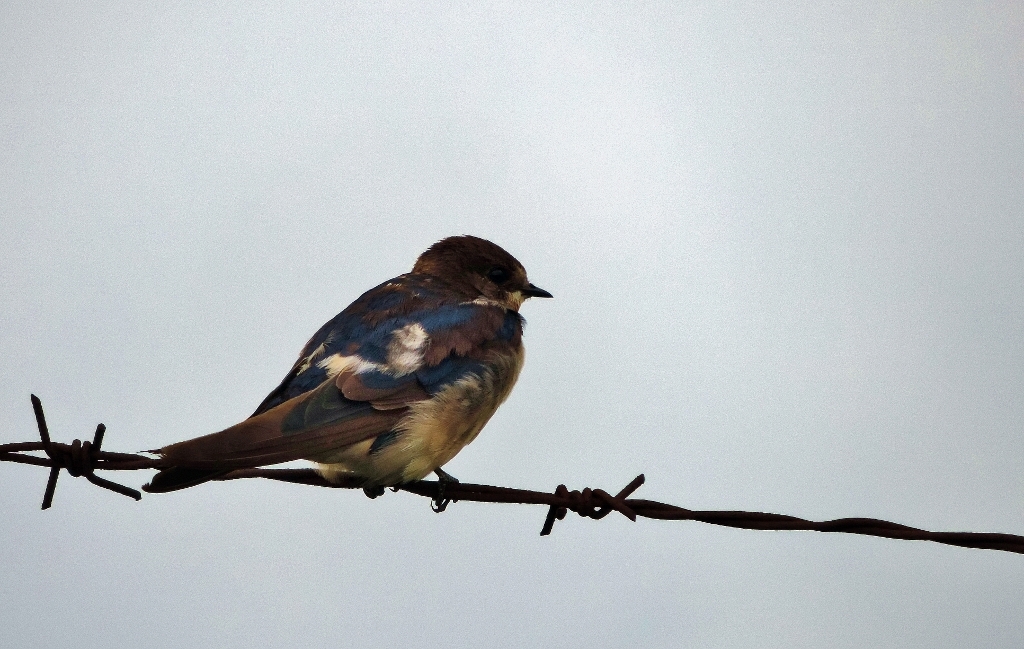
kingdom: Animalia
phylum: Chordata
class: Aves
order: Passeriformes
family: Hirundinidae
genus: Hirundo
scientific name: Hirundo rustica
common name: Barn swallow
